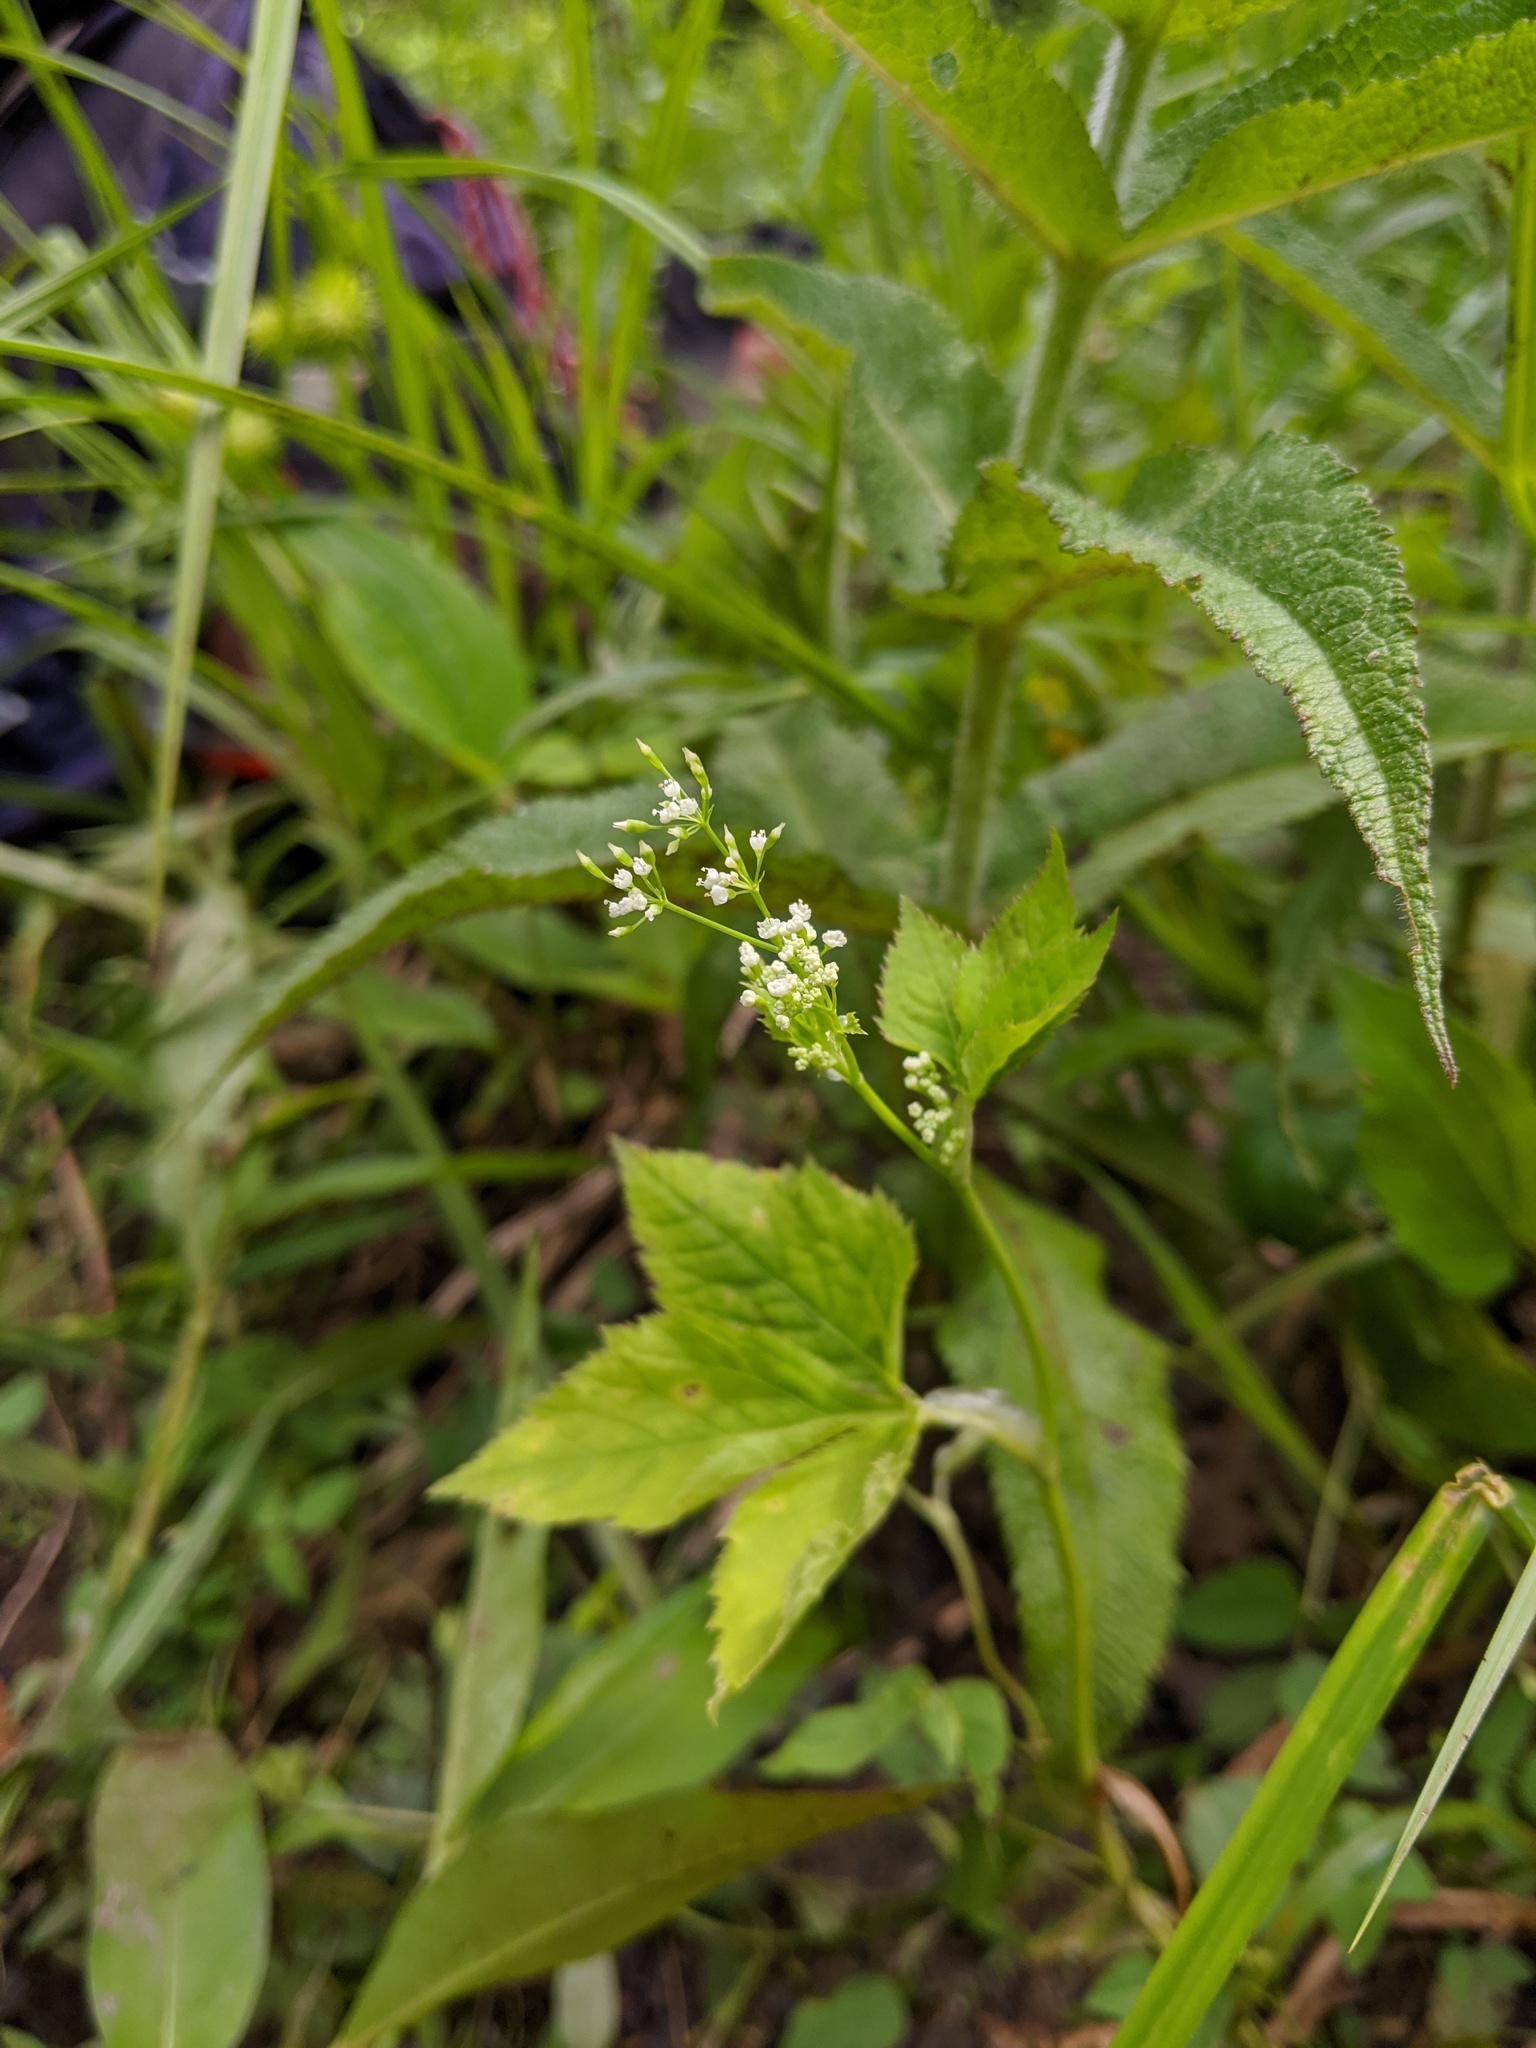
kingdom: Plantae
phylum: Tracheophyta
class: Magnoliopsida
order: Apiales
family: Apiaceae
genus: Cryptotaenia
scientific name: Cryptotaenia canadensis
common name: Honewort
